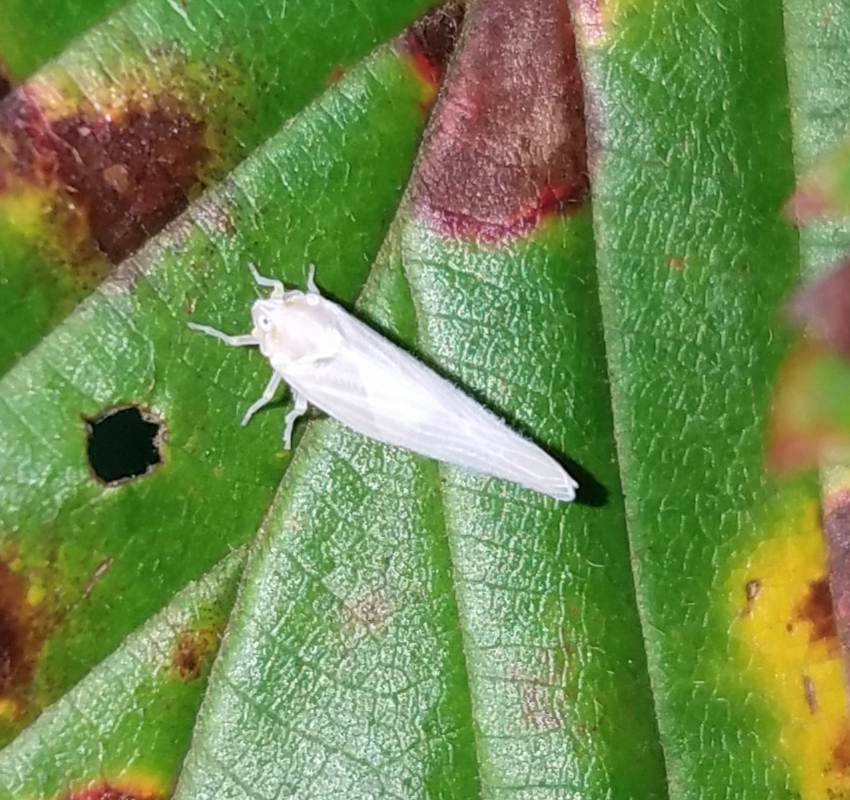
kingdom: Animalia
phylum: Arthropoda
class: Insecta
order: Hemiptera
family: Derbidae
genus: Neocenchrea
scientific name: Neocenchrea heidemanni
